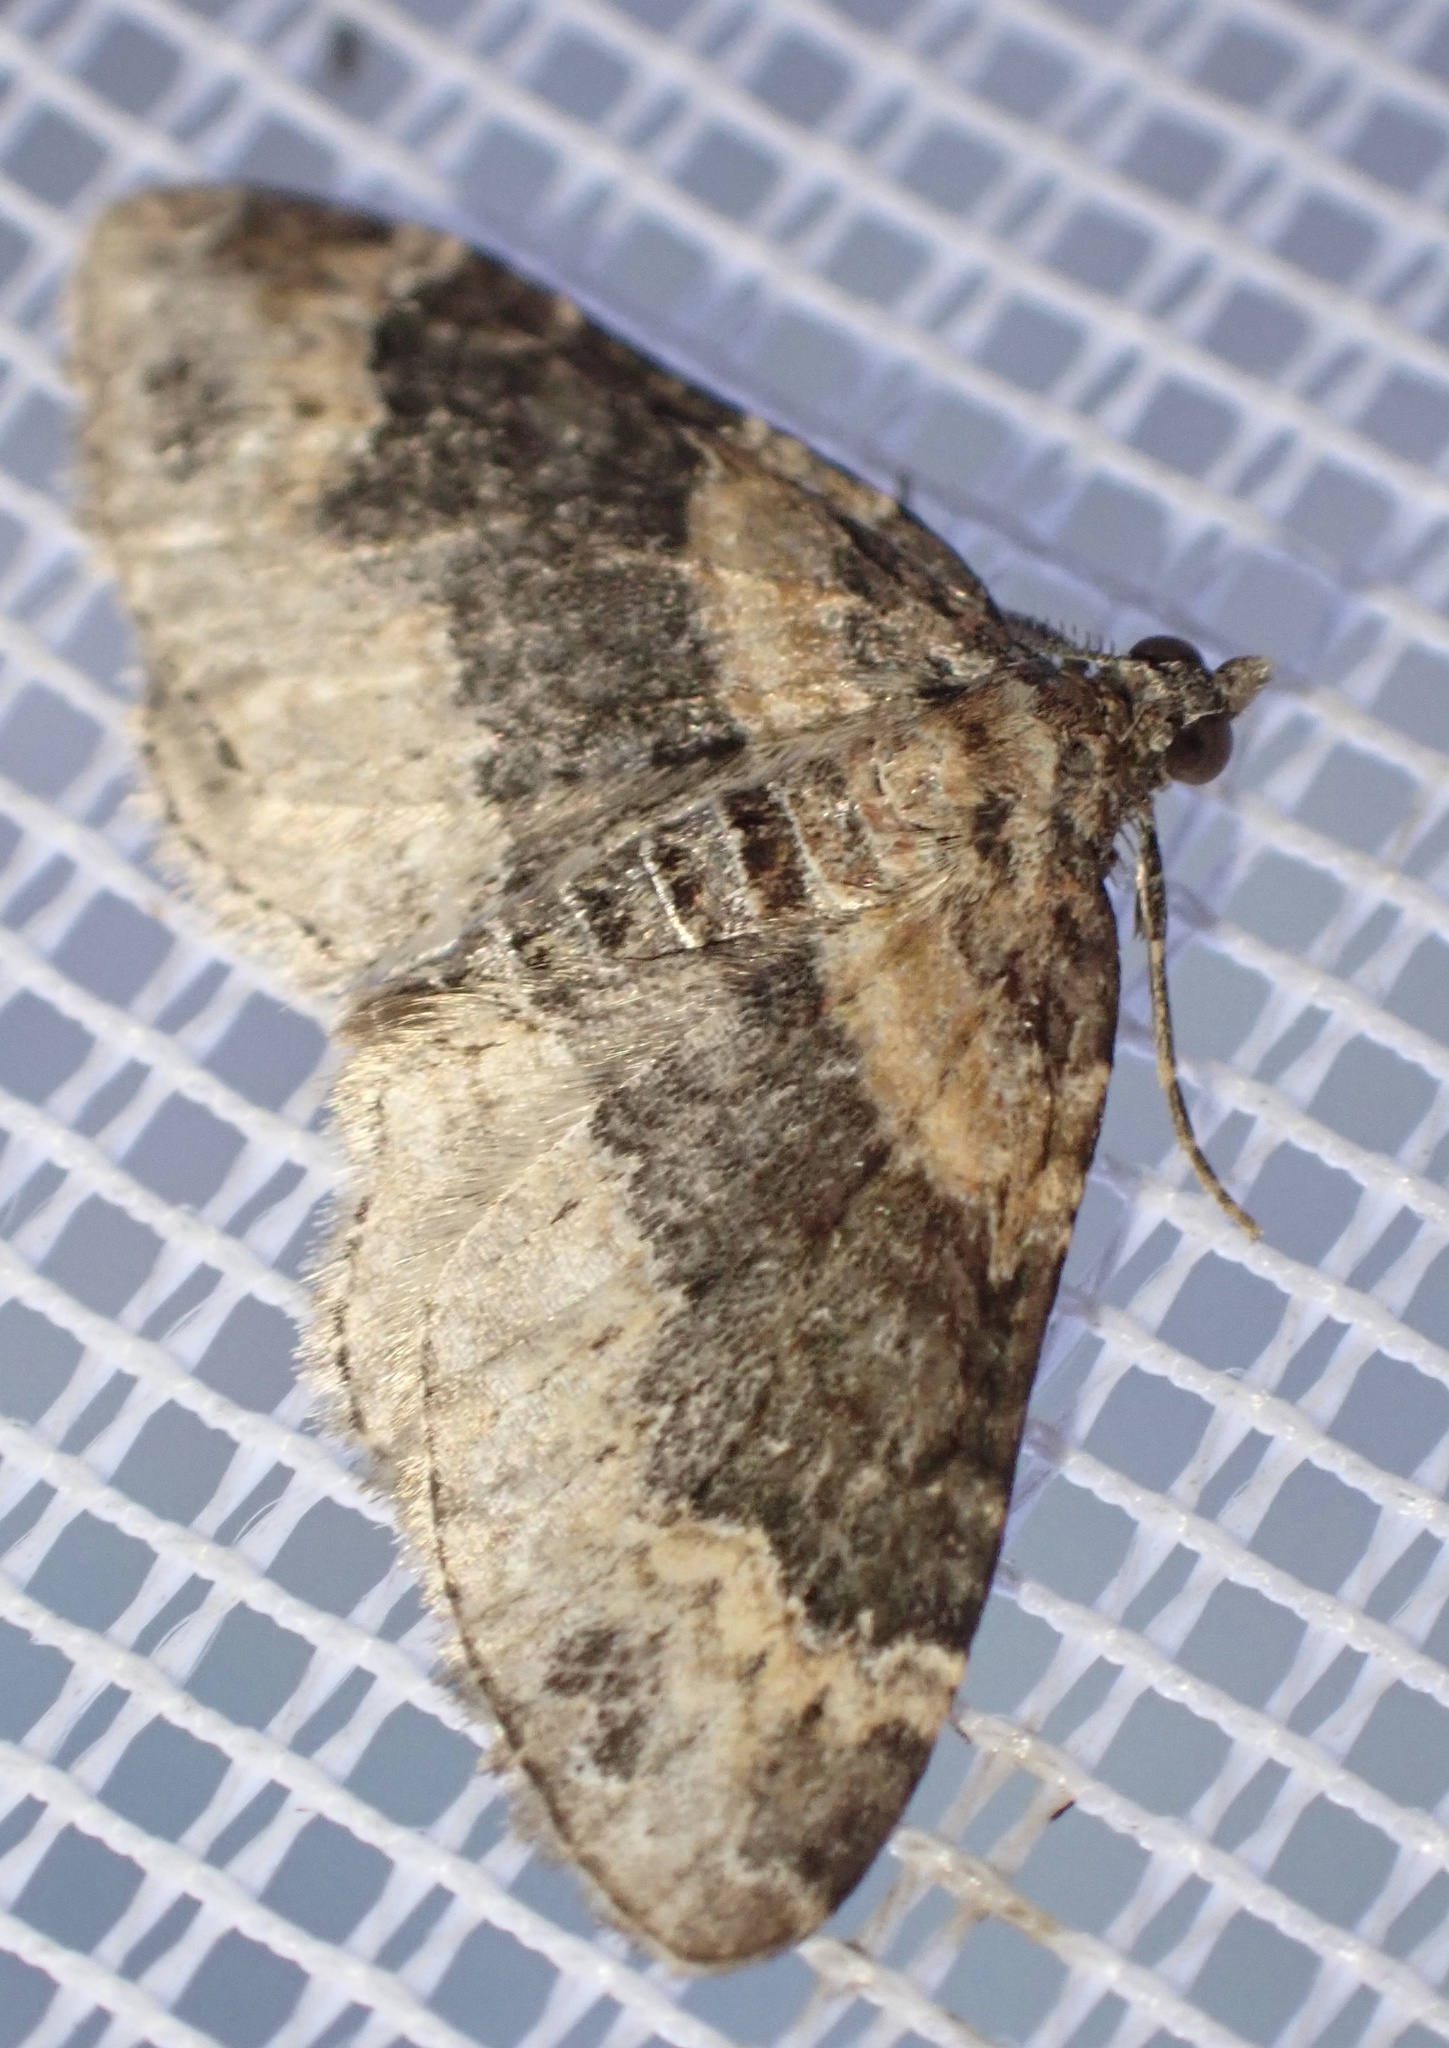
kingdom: Animalia
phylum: Arthropoda
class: Insecta
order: Lepidoptera
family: Geometridae
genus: Xanthorhoe
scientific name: Xanthorhoe ferrugata
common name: Dark-barred twin-spot carpet
